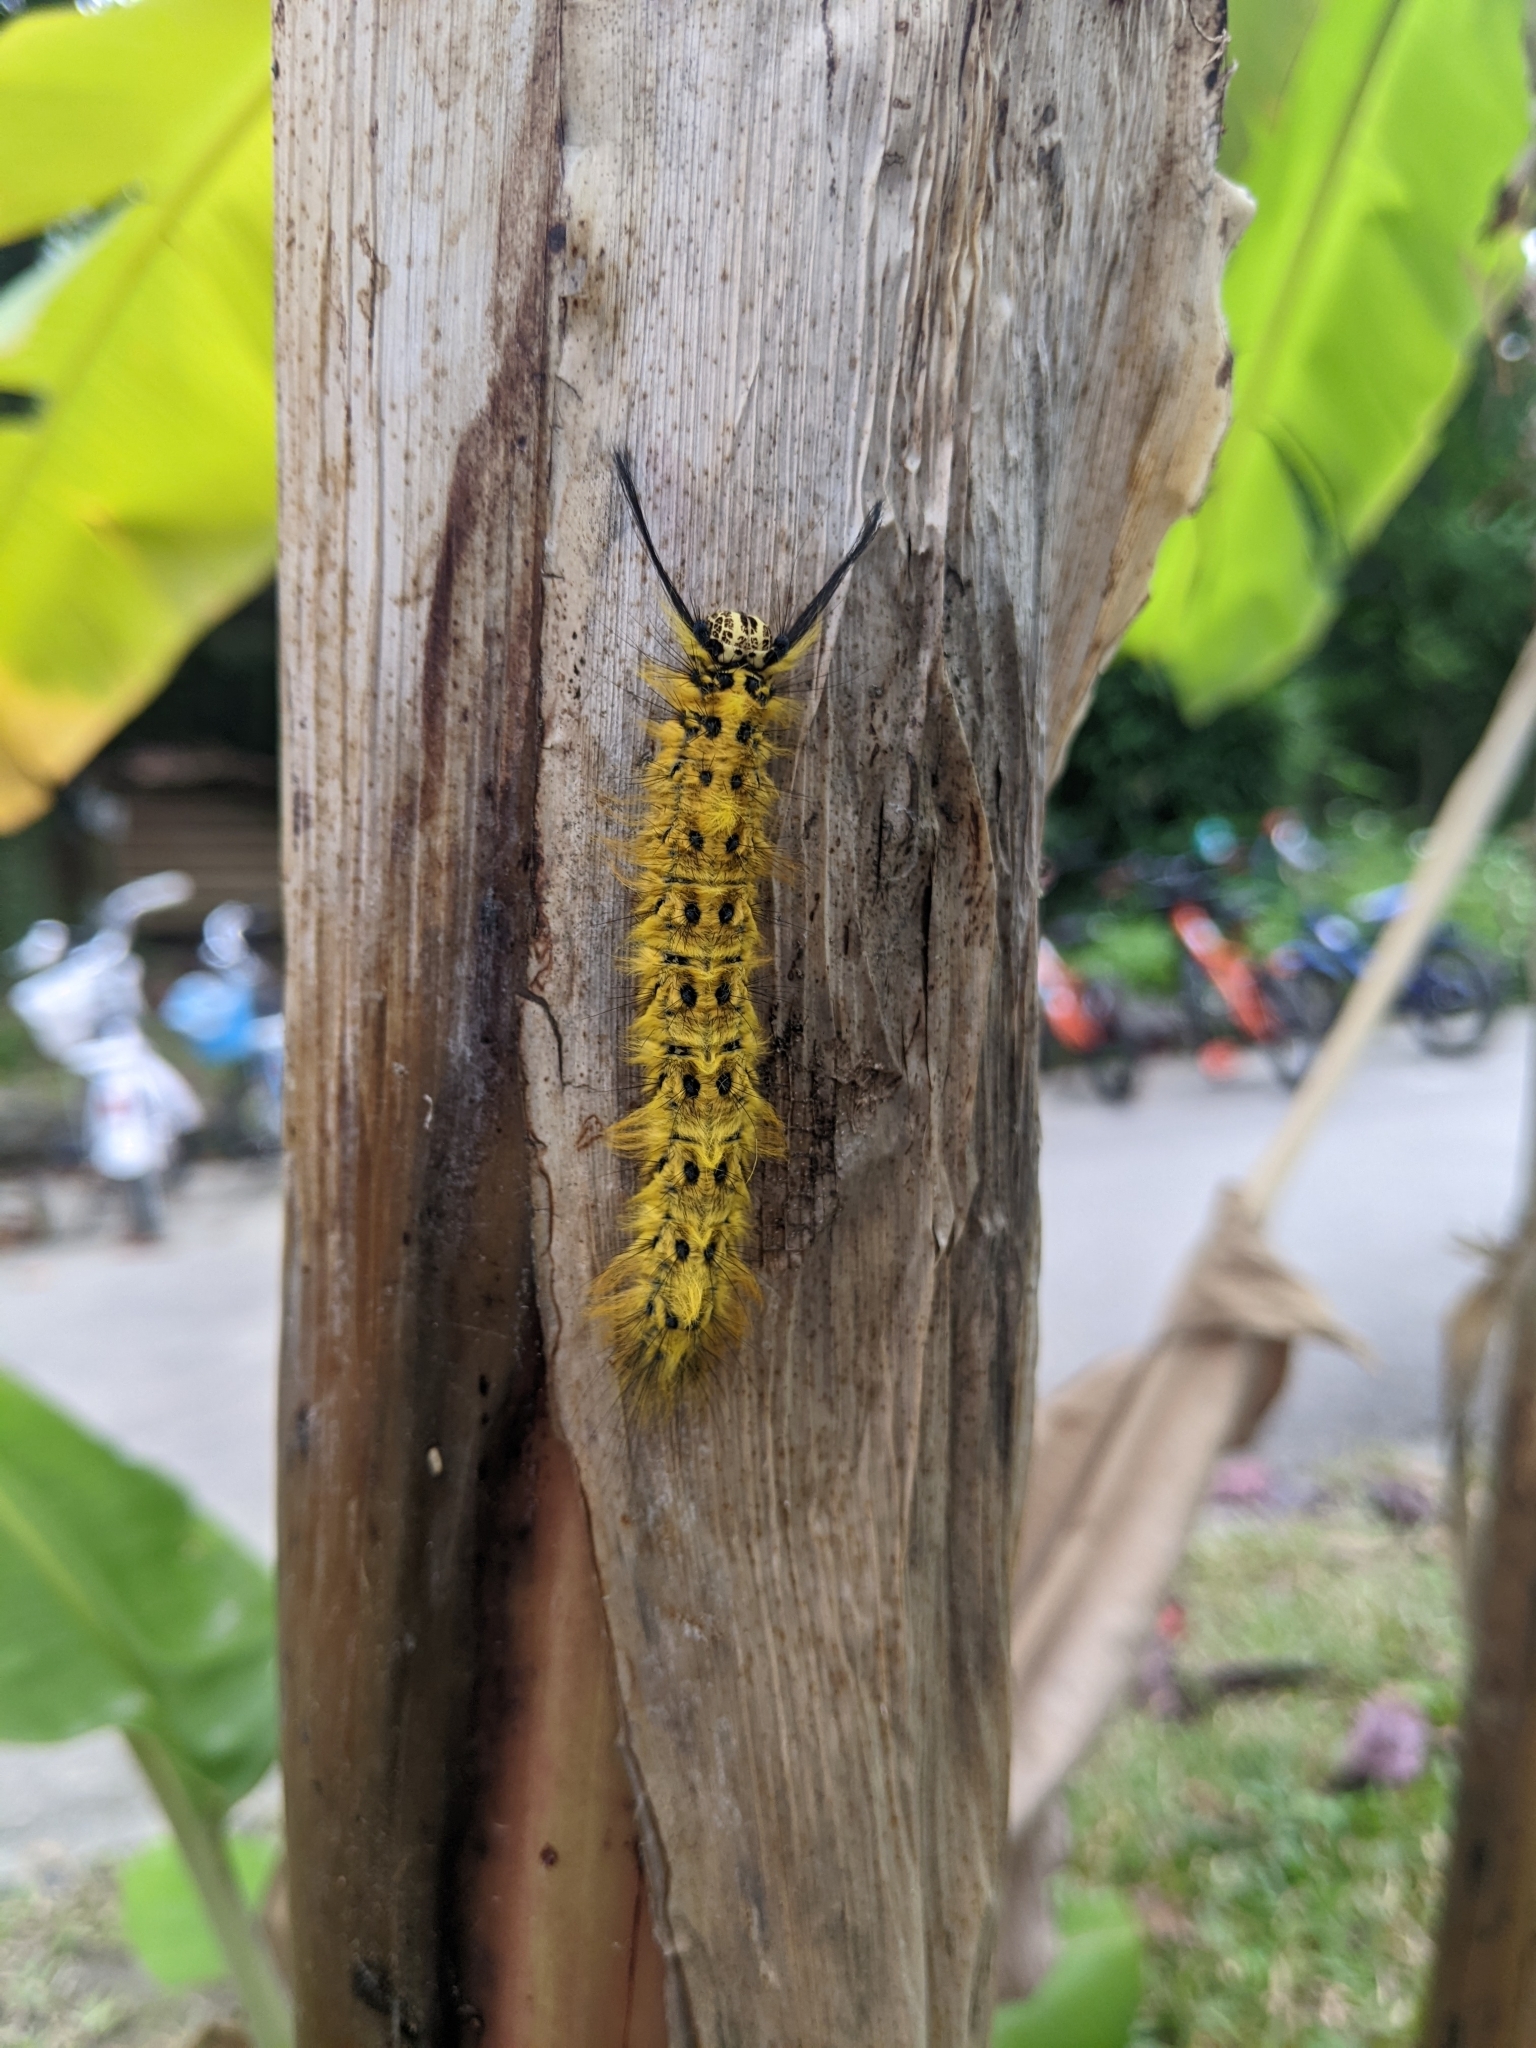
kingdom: Animalia
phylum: Arthropoda
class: Insecta
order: Lepidoptera
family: Lasiocampidae
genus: Trabala
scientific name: Trabala vishnou
